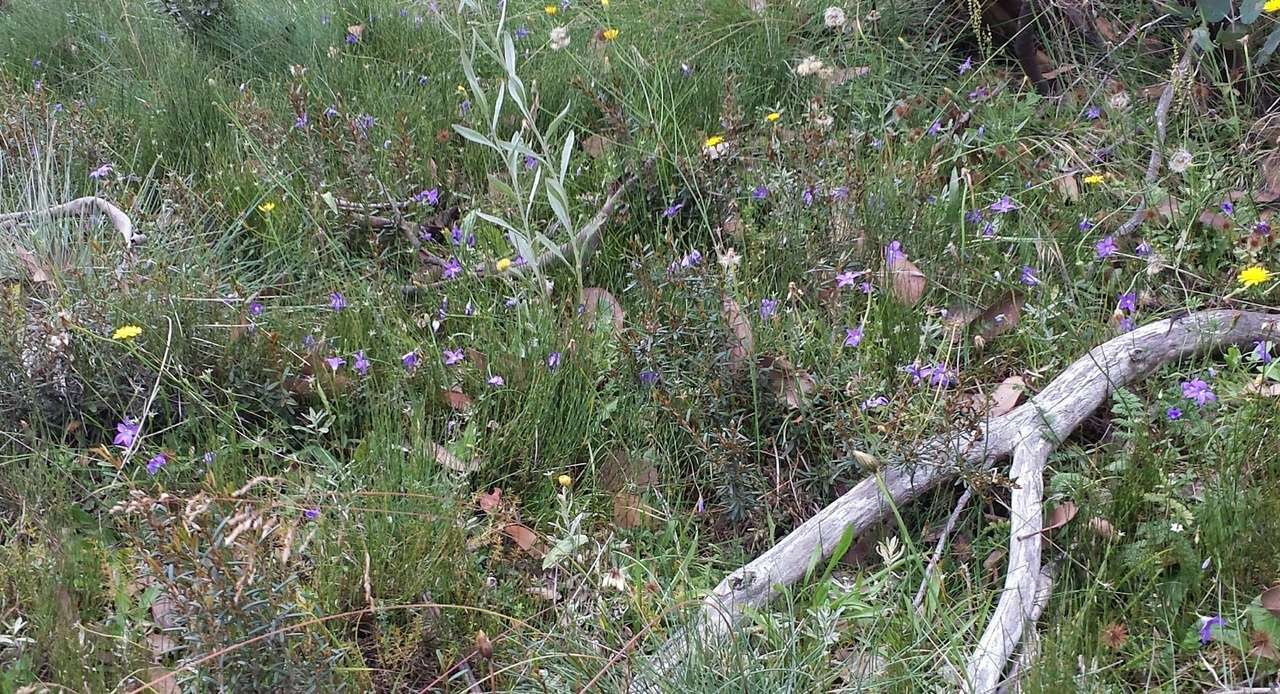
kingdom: Plantae
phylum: Tracheophyta
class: Magnoliopsida
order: Asterales
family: Campanulaceae
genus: Wahlenbergia
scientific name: Wahlenbergia victoriensis
